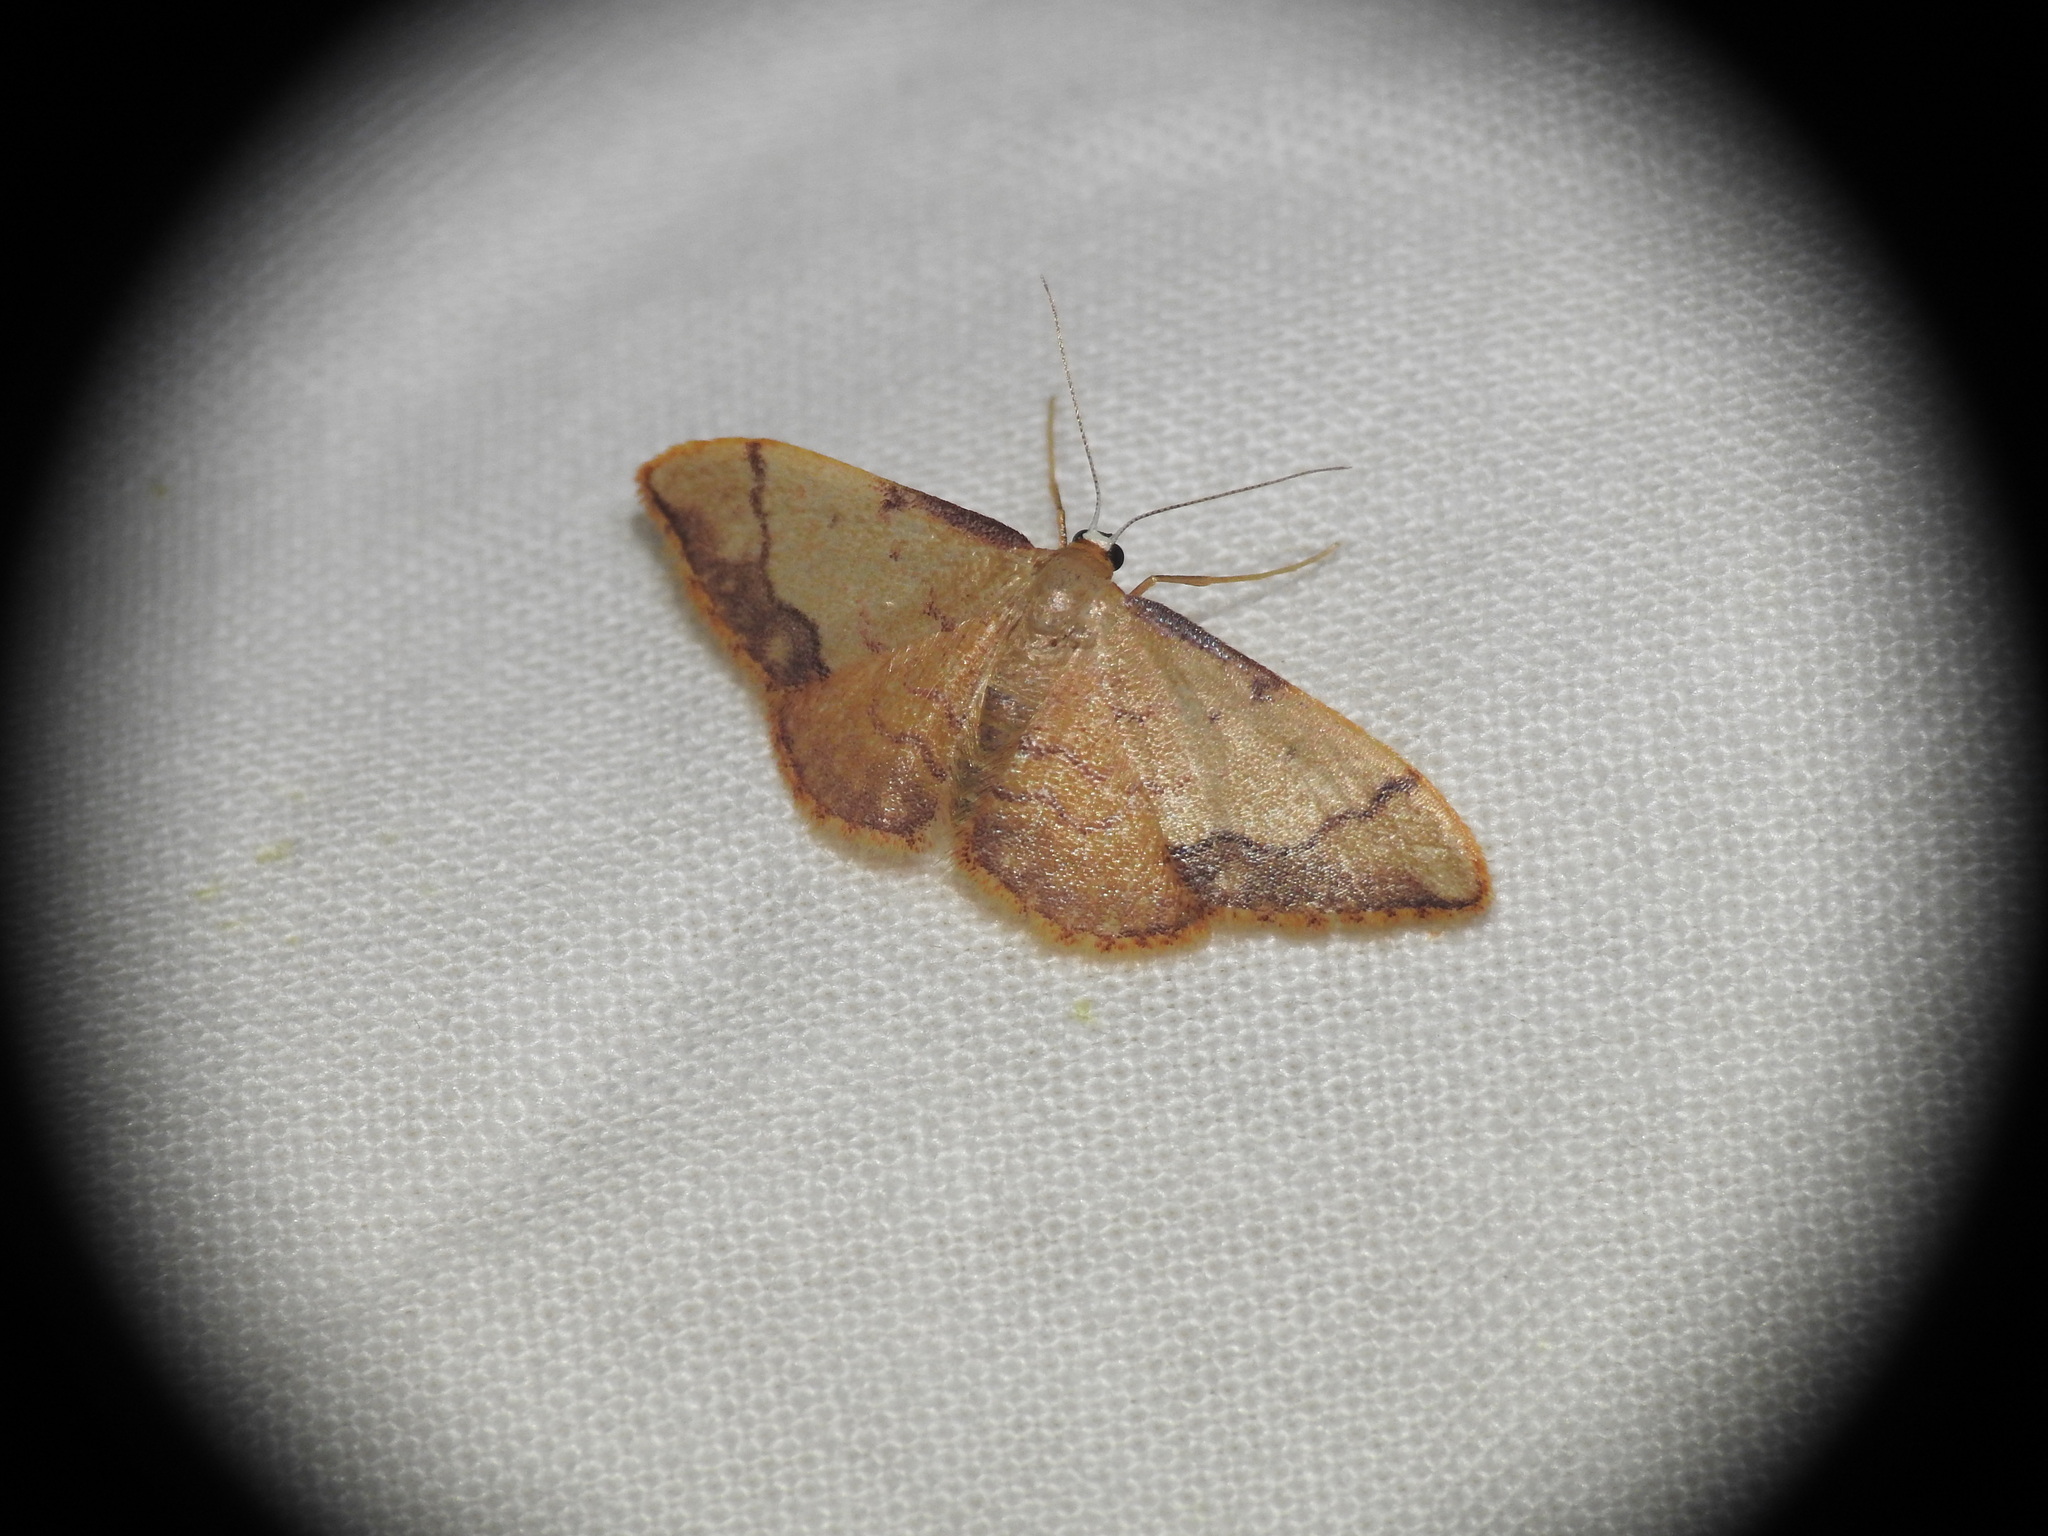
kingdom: Animalia
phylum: Arthropoda
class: Insecta
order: Lepidoptera
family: Geometridae
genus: Idaea
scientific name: Idaea ostrinaria
